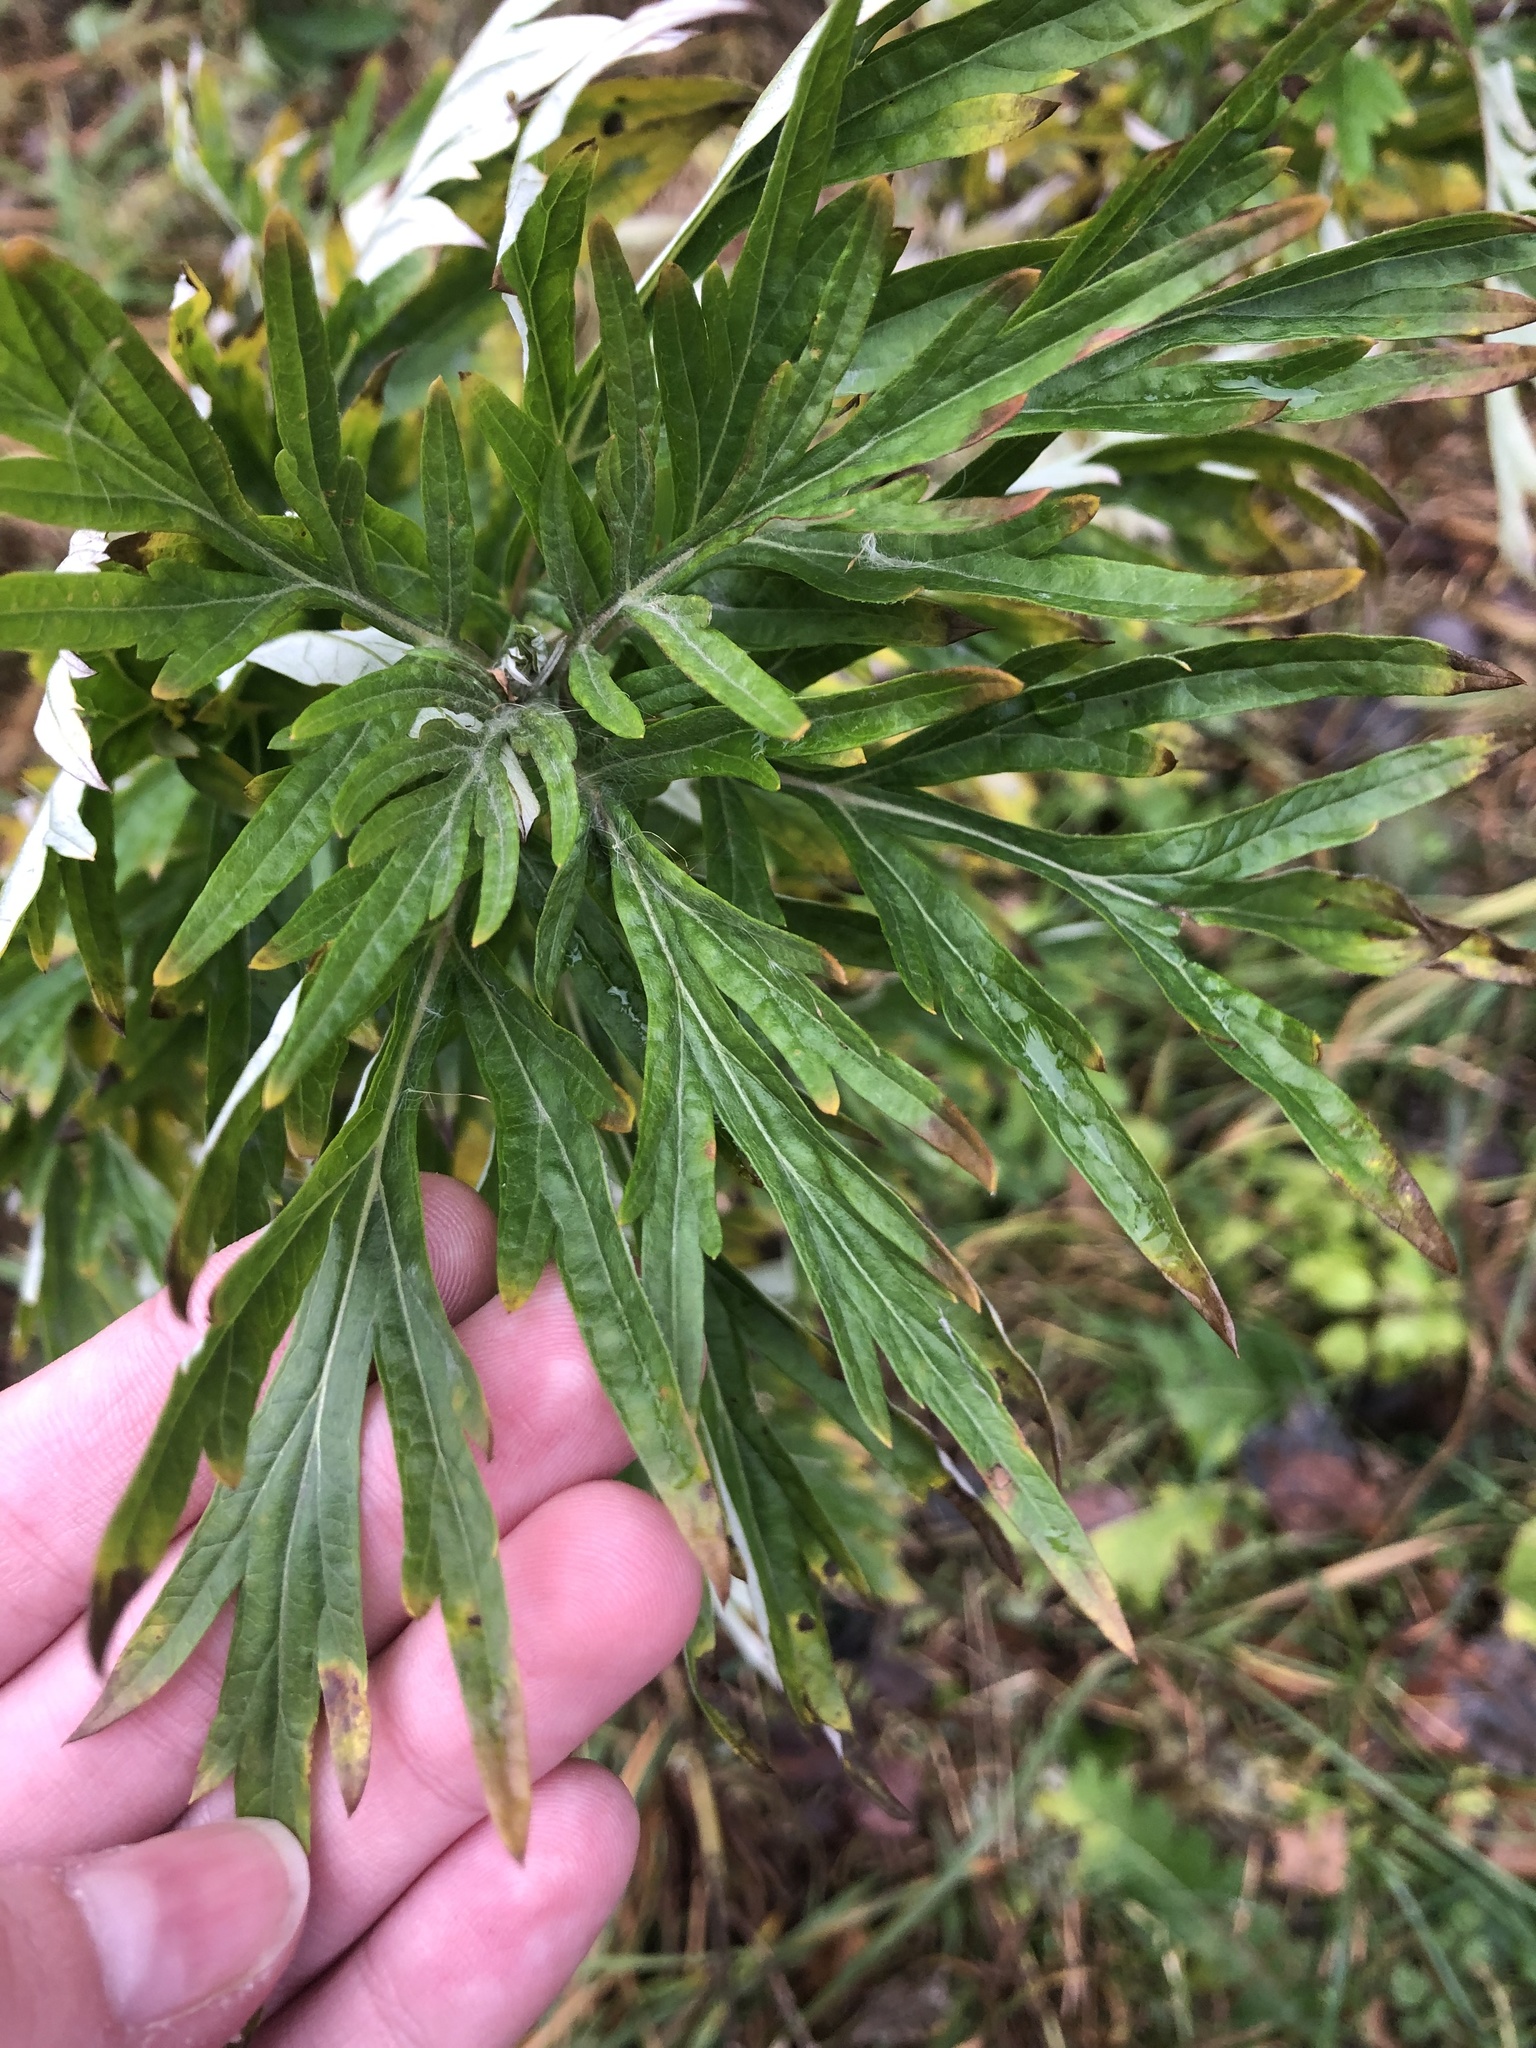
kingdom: Plantae
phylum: Tracheophyta
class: Magnoliopsida
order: Asterales
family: Asteraceae
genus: Artemisia
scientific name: Artemisia vulgaris
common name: Mugwort
